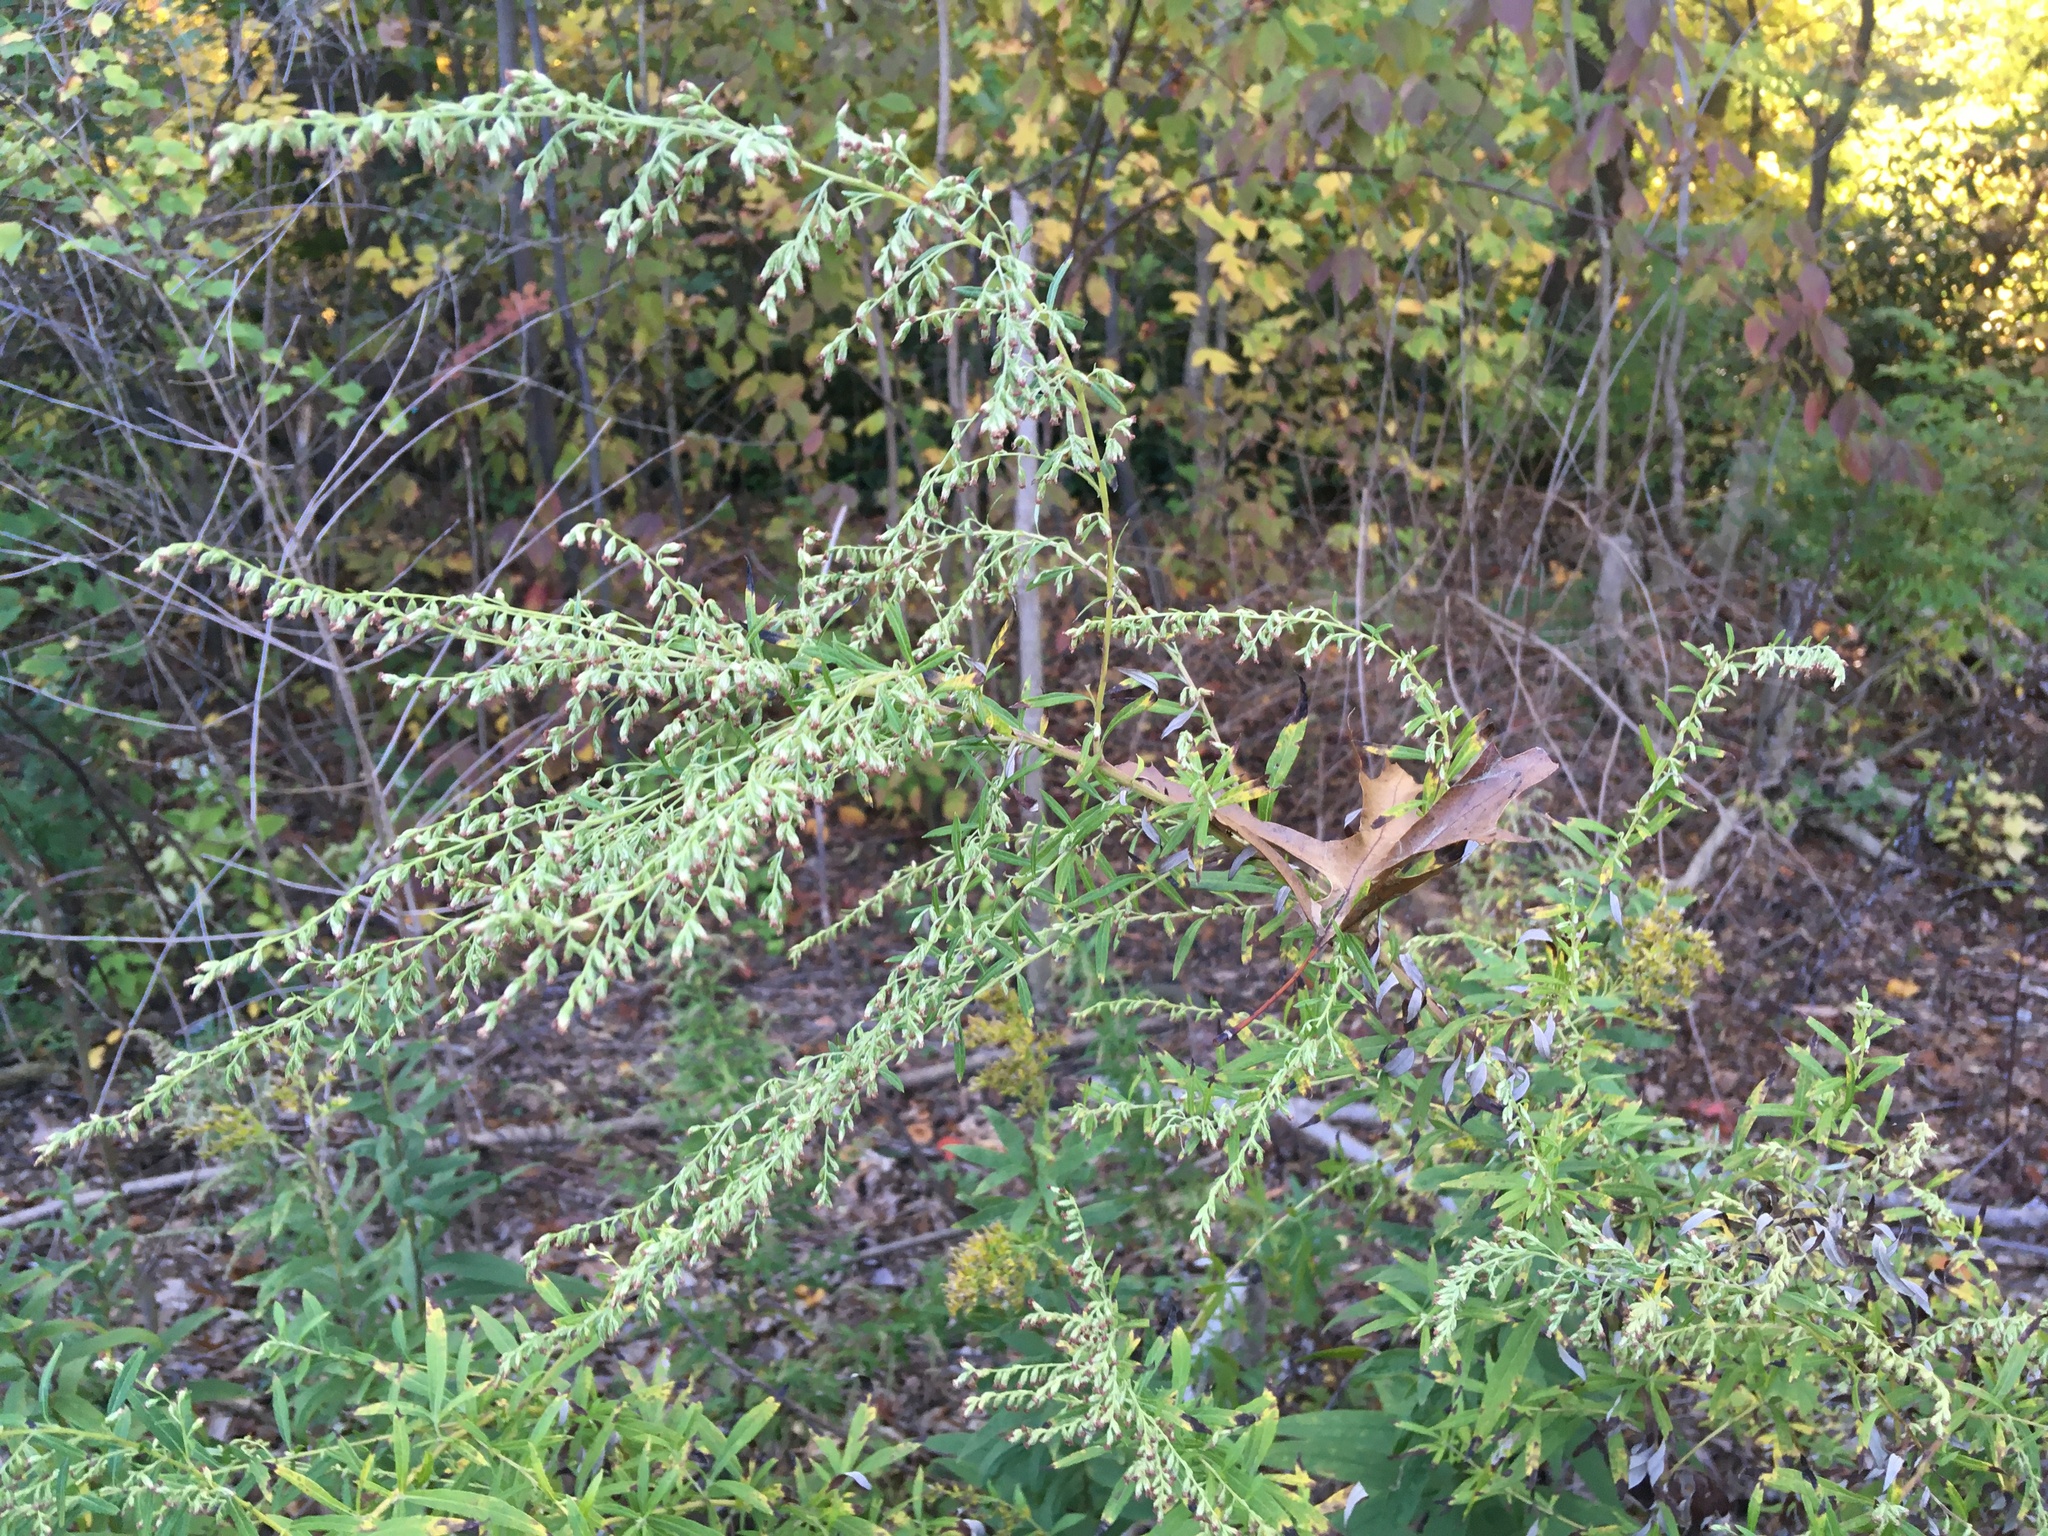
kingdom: Plantae
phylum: Tracheophyta
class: Magnoliopsida
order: Asterales
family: Asteraceae
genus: Artemisia
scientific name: Artemisia vulgaris
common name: Mugwort
